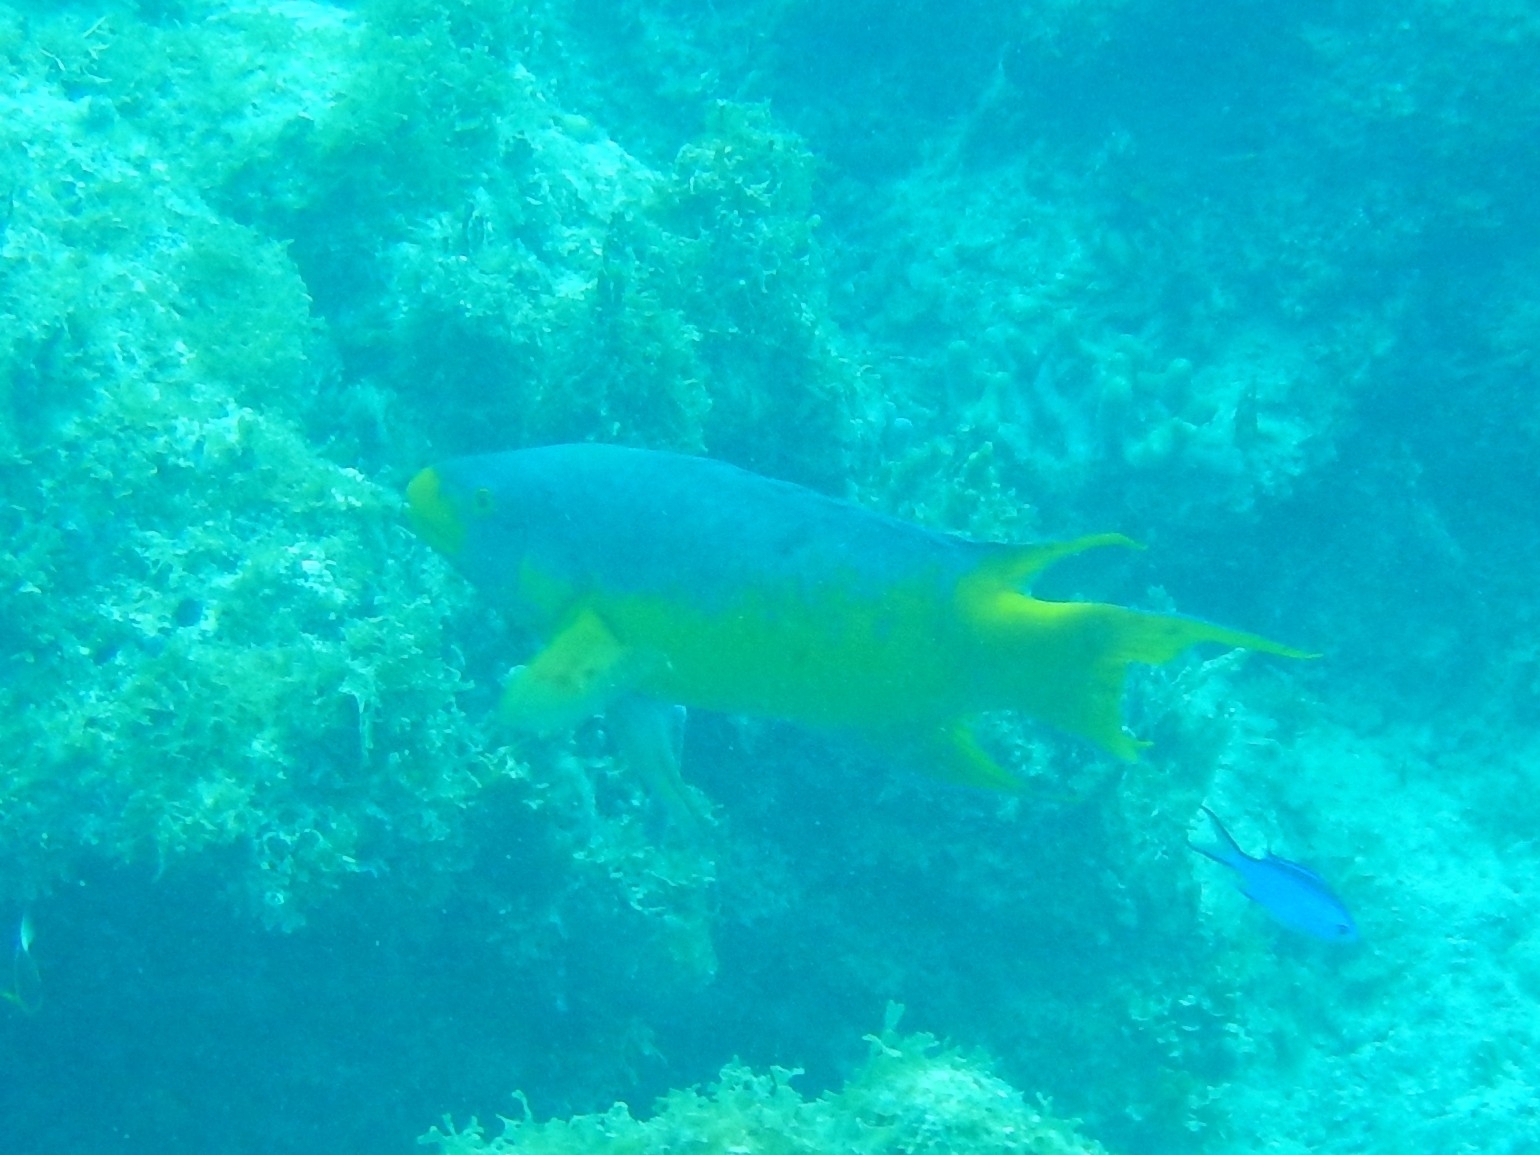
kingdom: Animalia
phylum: Chordata
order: Perciformes
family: Labridae
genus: Bodianus
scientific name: Bodianus rufus
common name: Spanish hogfish
